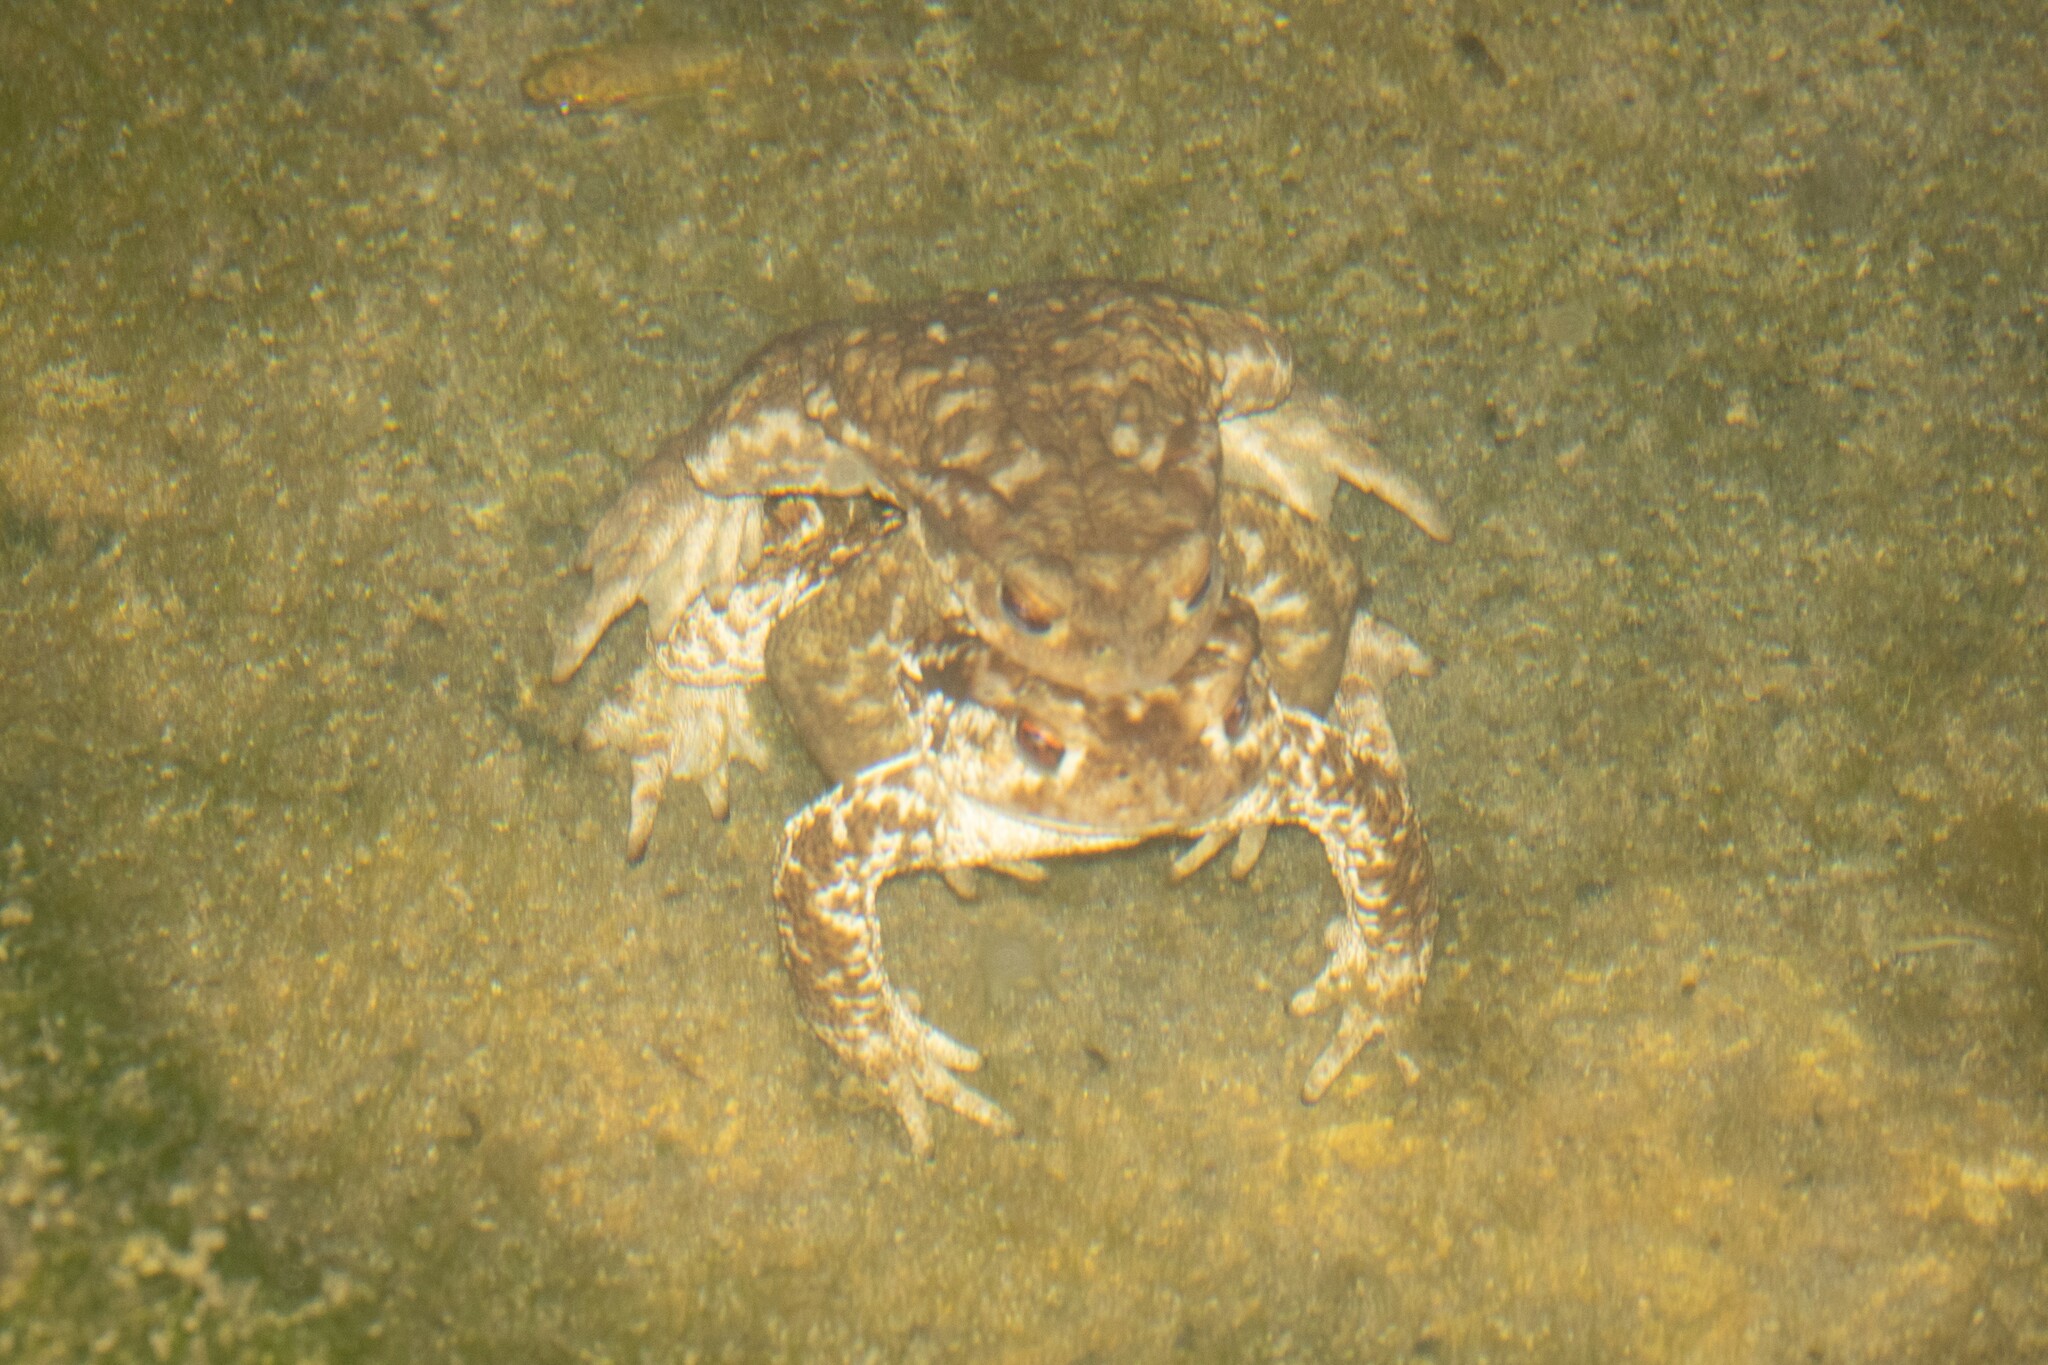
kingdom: Animalia
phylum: Chordata
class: Amphibia
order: Anura
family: Bufonidae
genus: Bufo
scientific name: Bufo spinosus
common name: Western common toad
